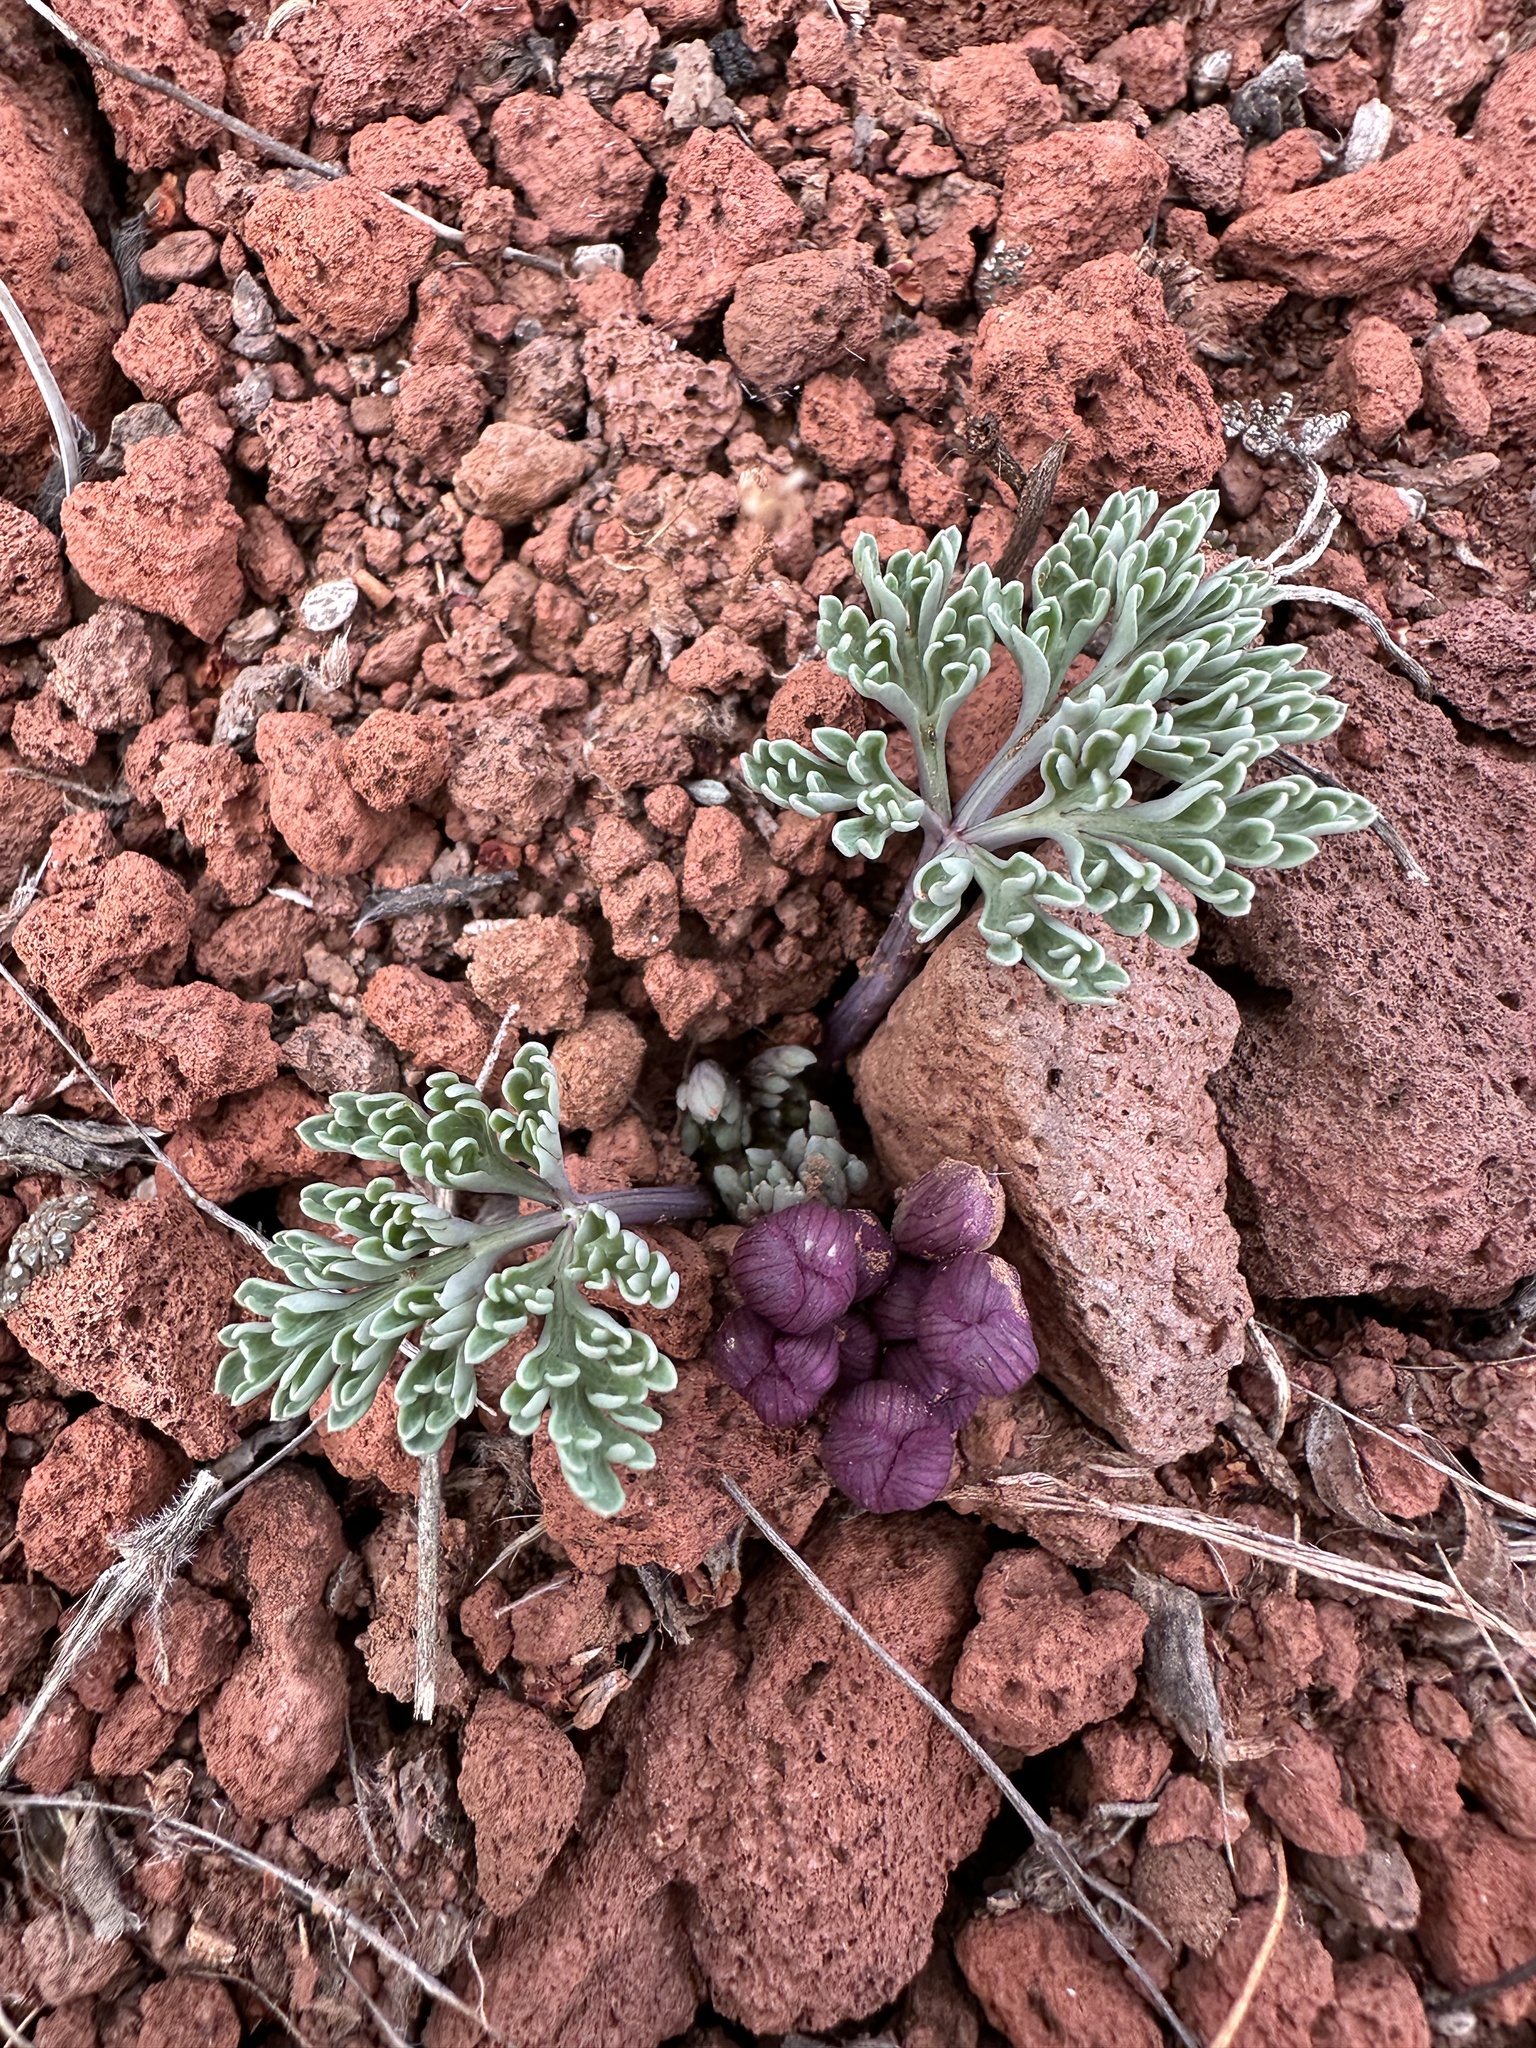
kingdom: Plantae
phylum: Tracheophyta
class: Magnoliopsida
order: Apiales
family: Apiaceae
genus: Vesper
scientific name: Vesper multinervatus
